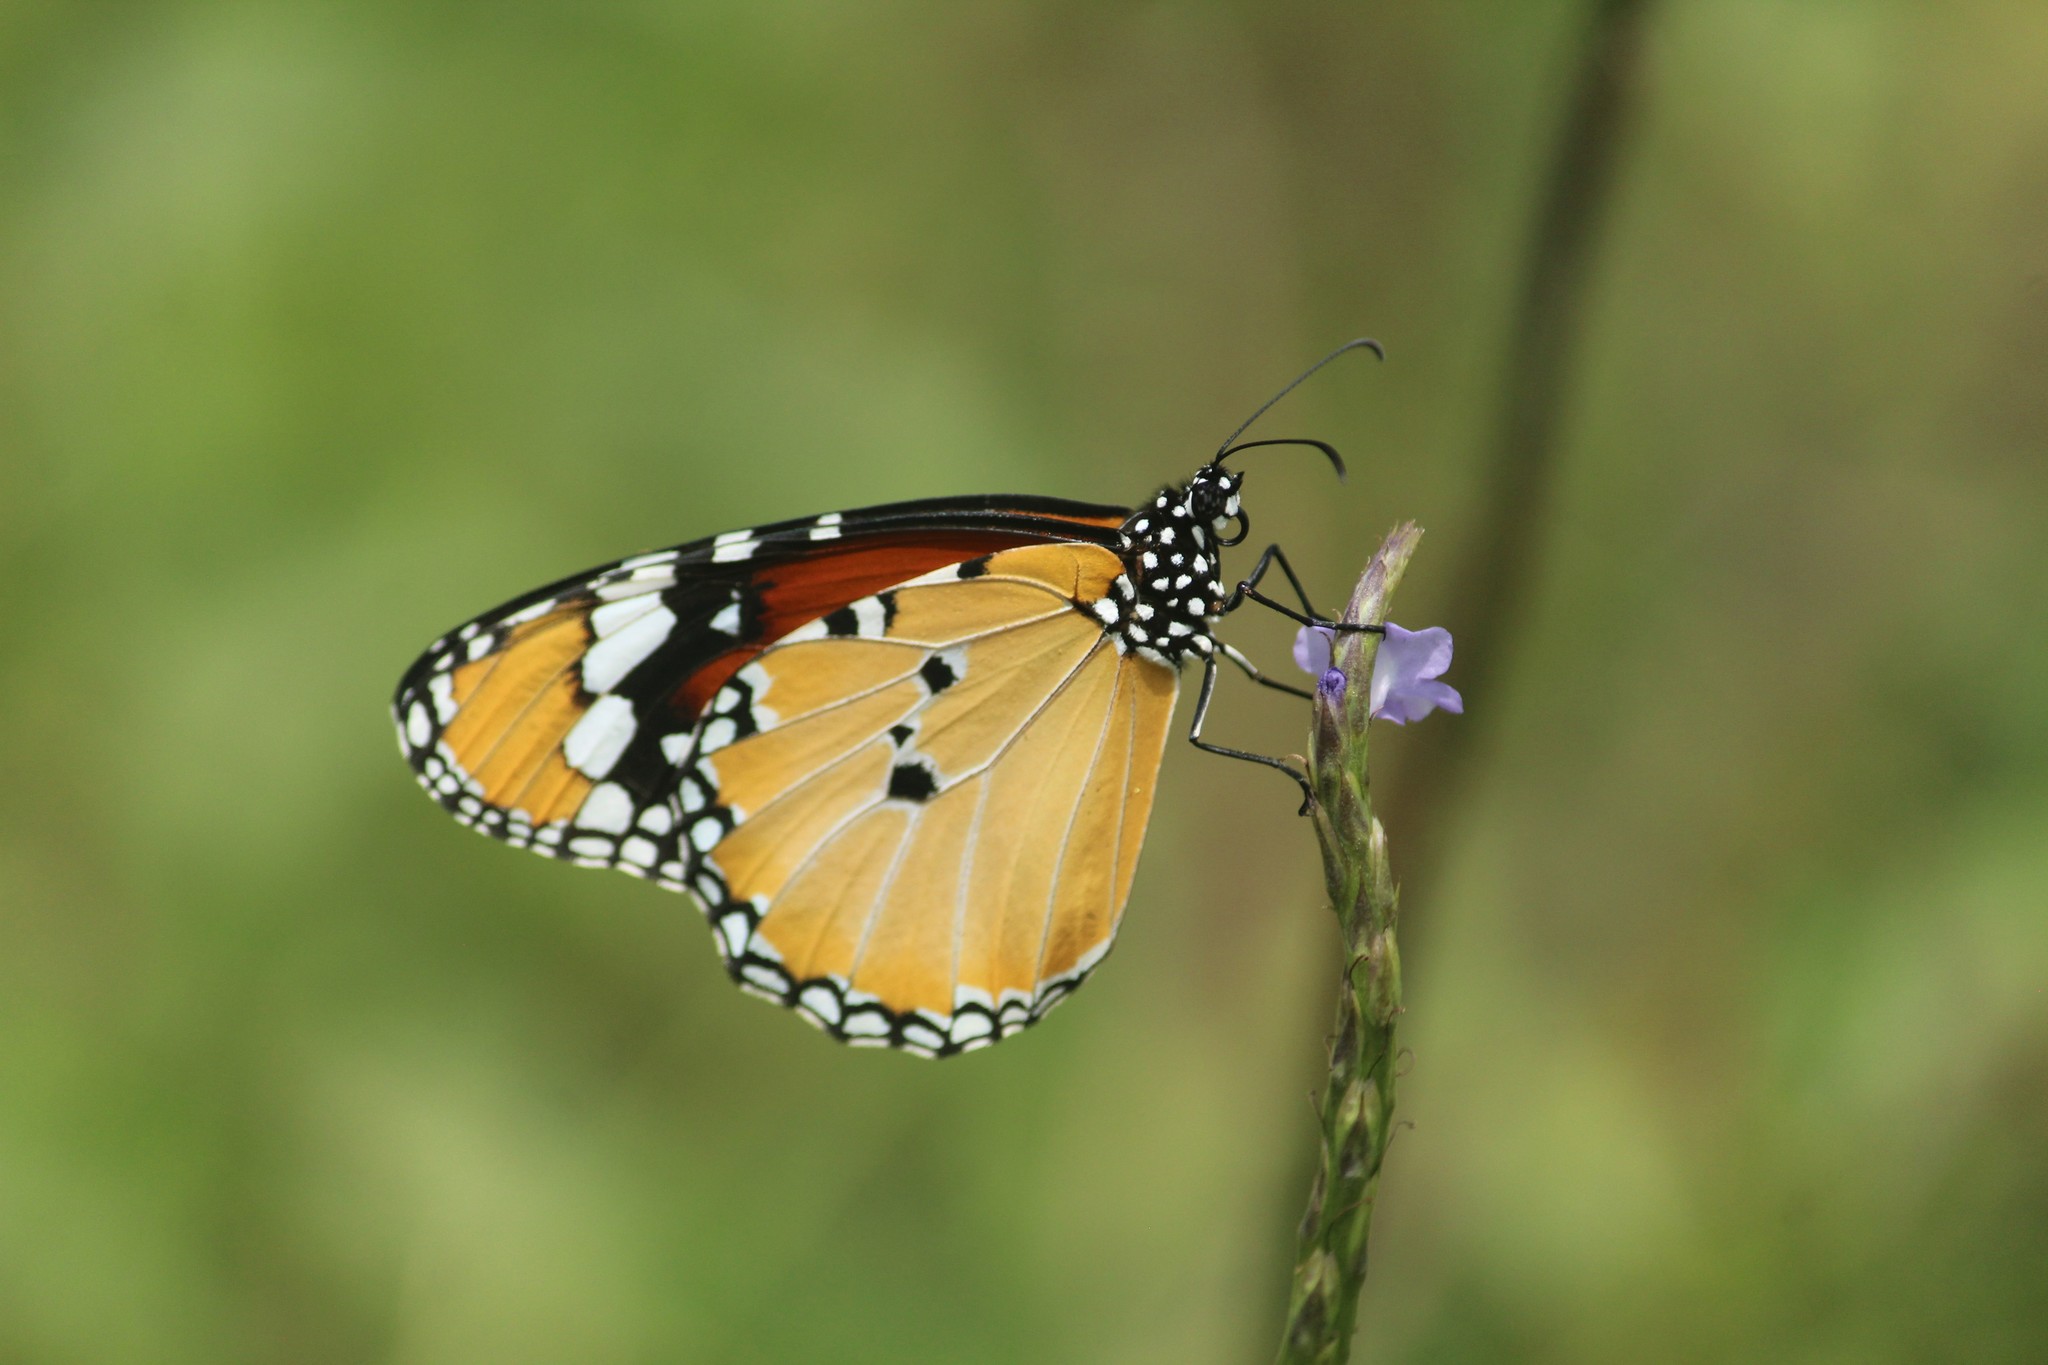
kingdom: Animalia
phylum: Arthropoda
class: Insecta
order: Lepidoptera
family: Nymphalidae
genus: Danaus
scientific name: Danaus chrysippus
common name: Plain tiger
